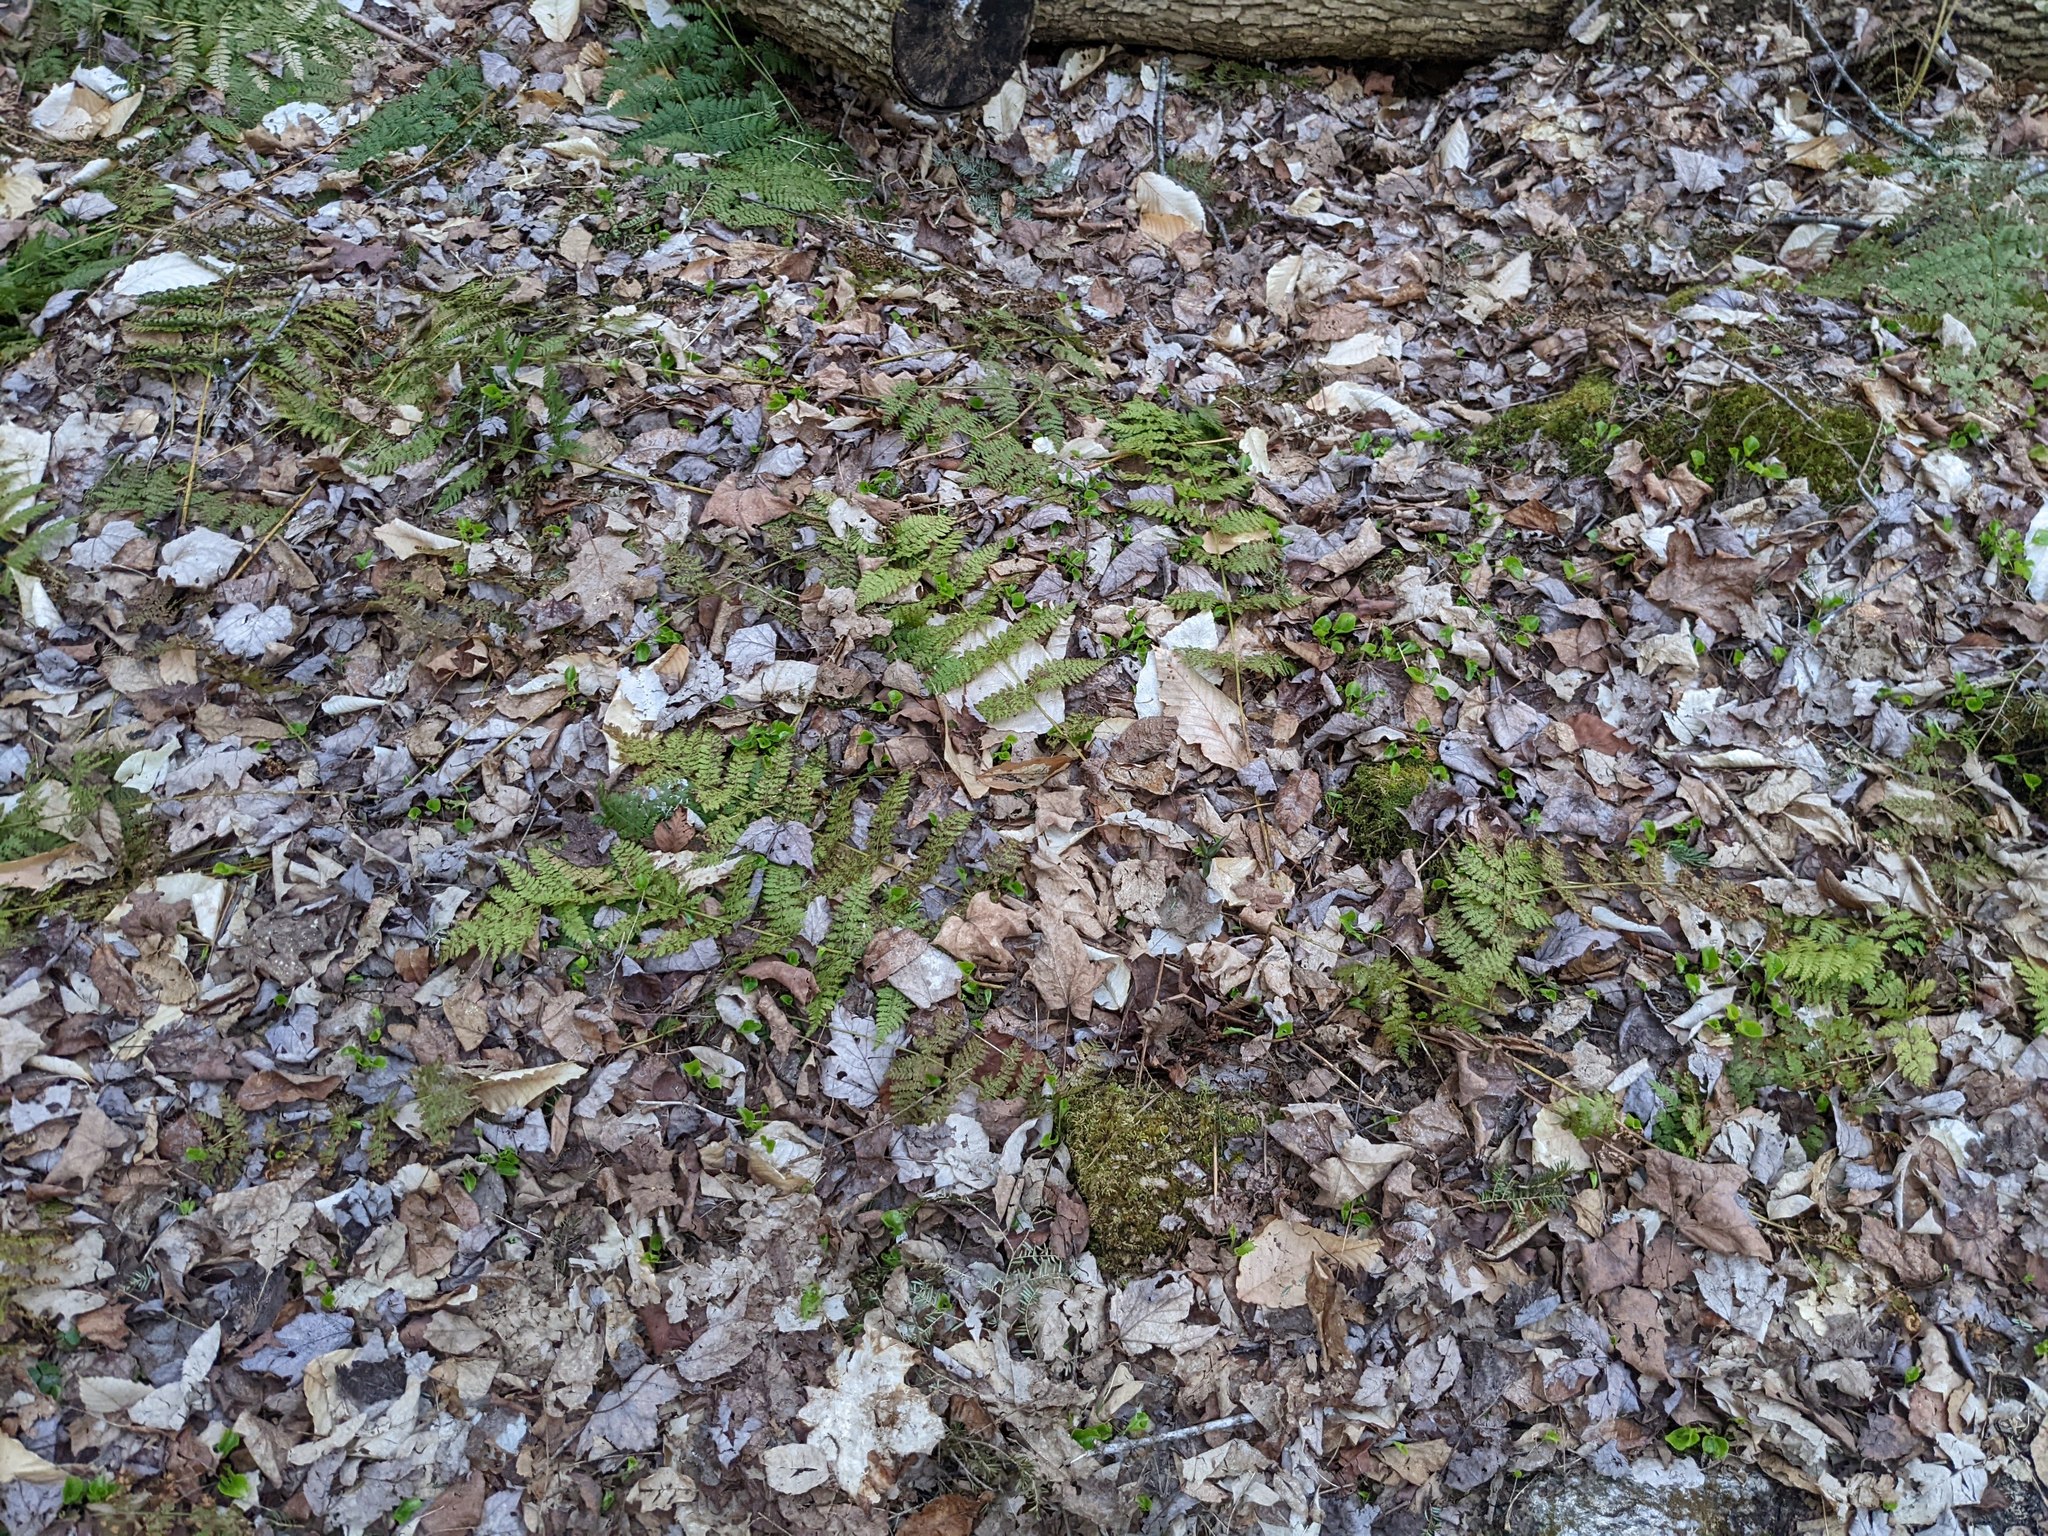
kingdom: Plantae
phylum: Tracheophyta
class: Polypodiopsida
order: Polypodiales
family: Dryopteridaceae
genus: Dryopteris
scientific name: Dryopteris intermedia
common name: Evergreen wood fern
